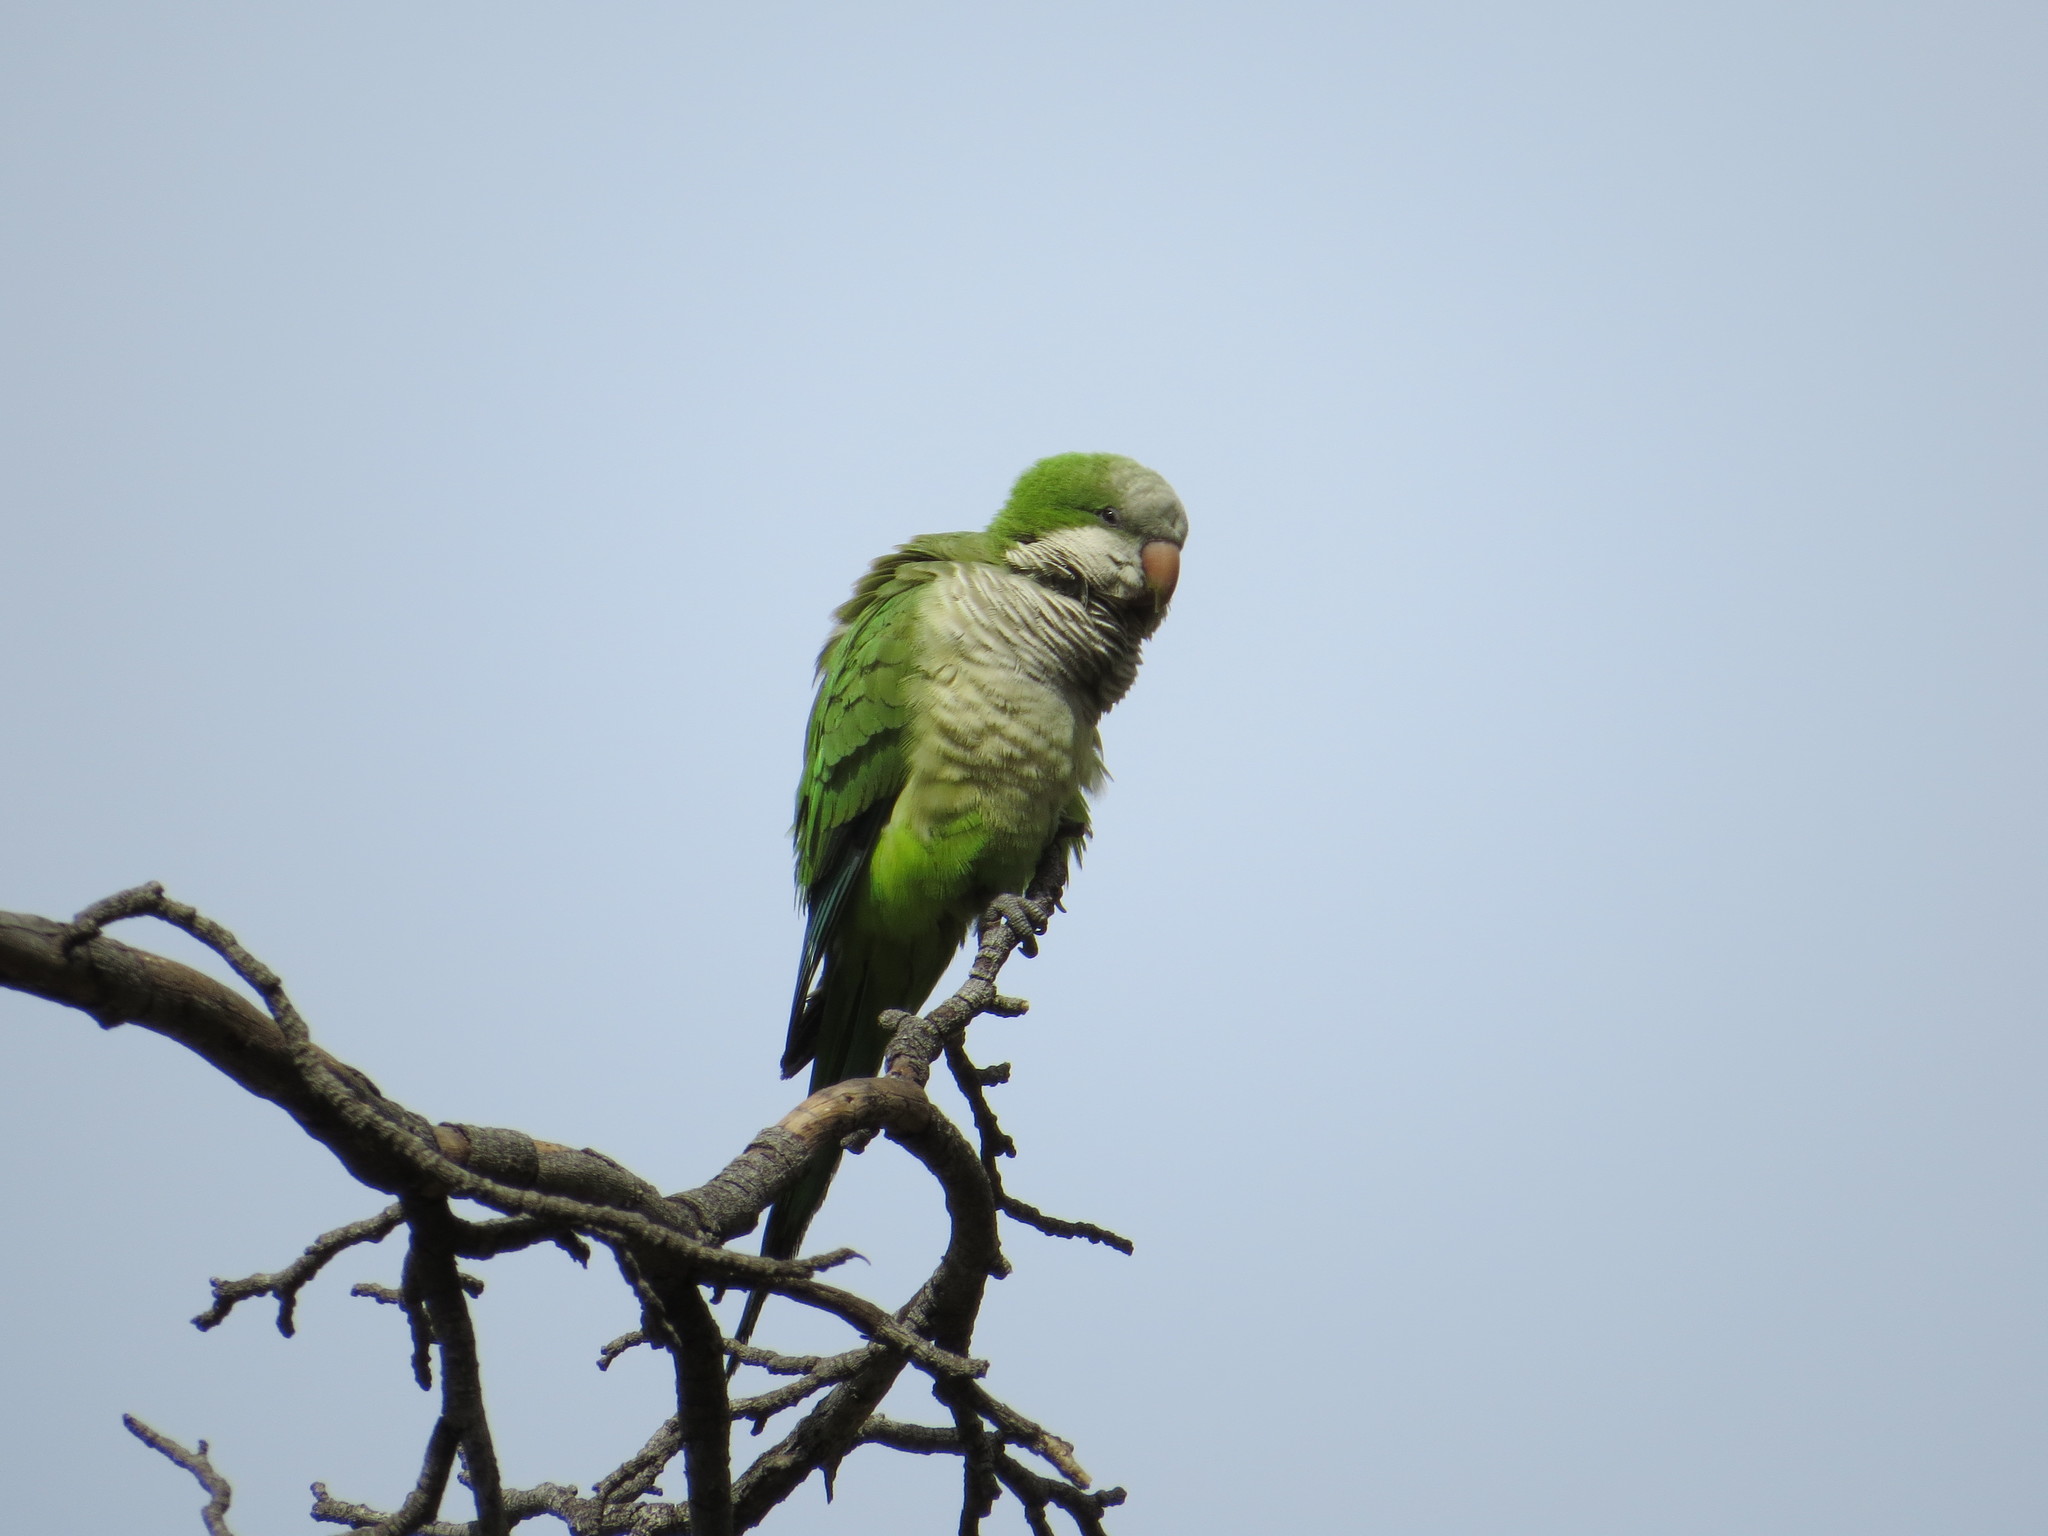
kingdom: Animalia
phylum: Chordata
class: Aves
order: Psittaciformes
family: Psittacidae
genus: Myiopsitta
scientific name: Myiopsitta monachus
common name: Monk parakeet
